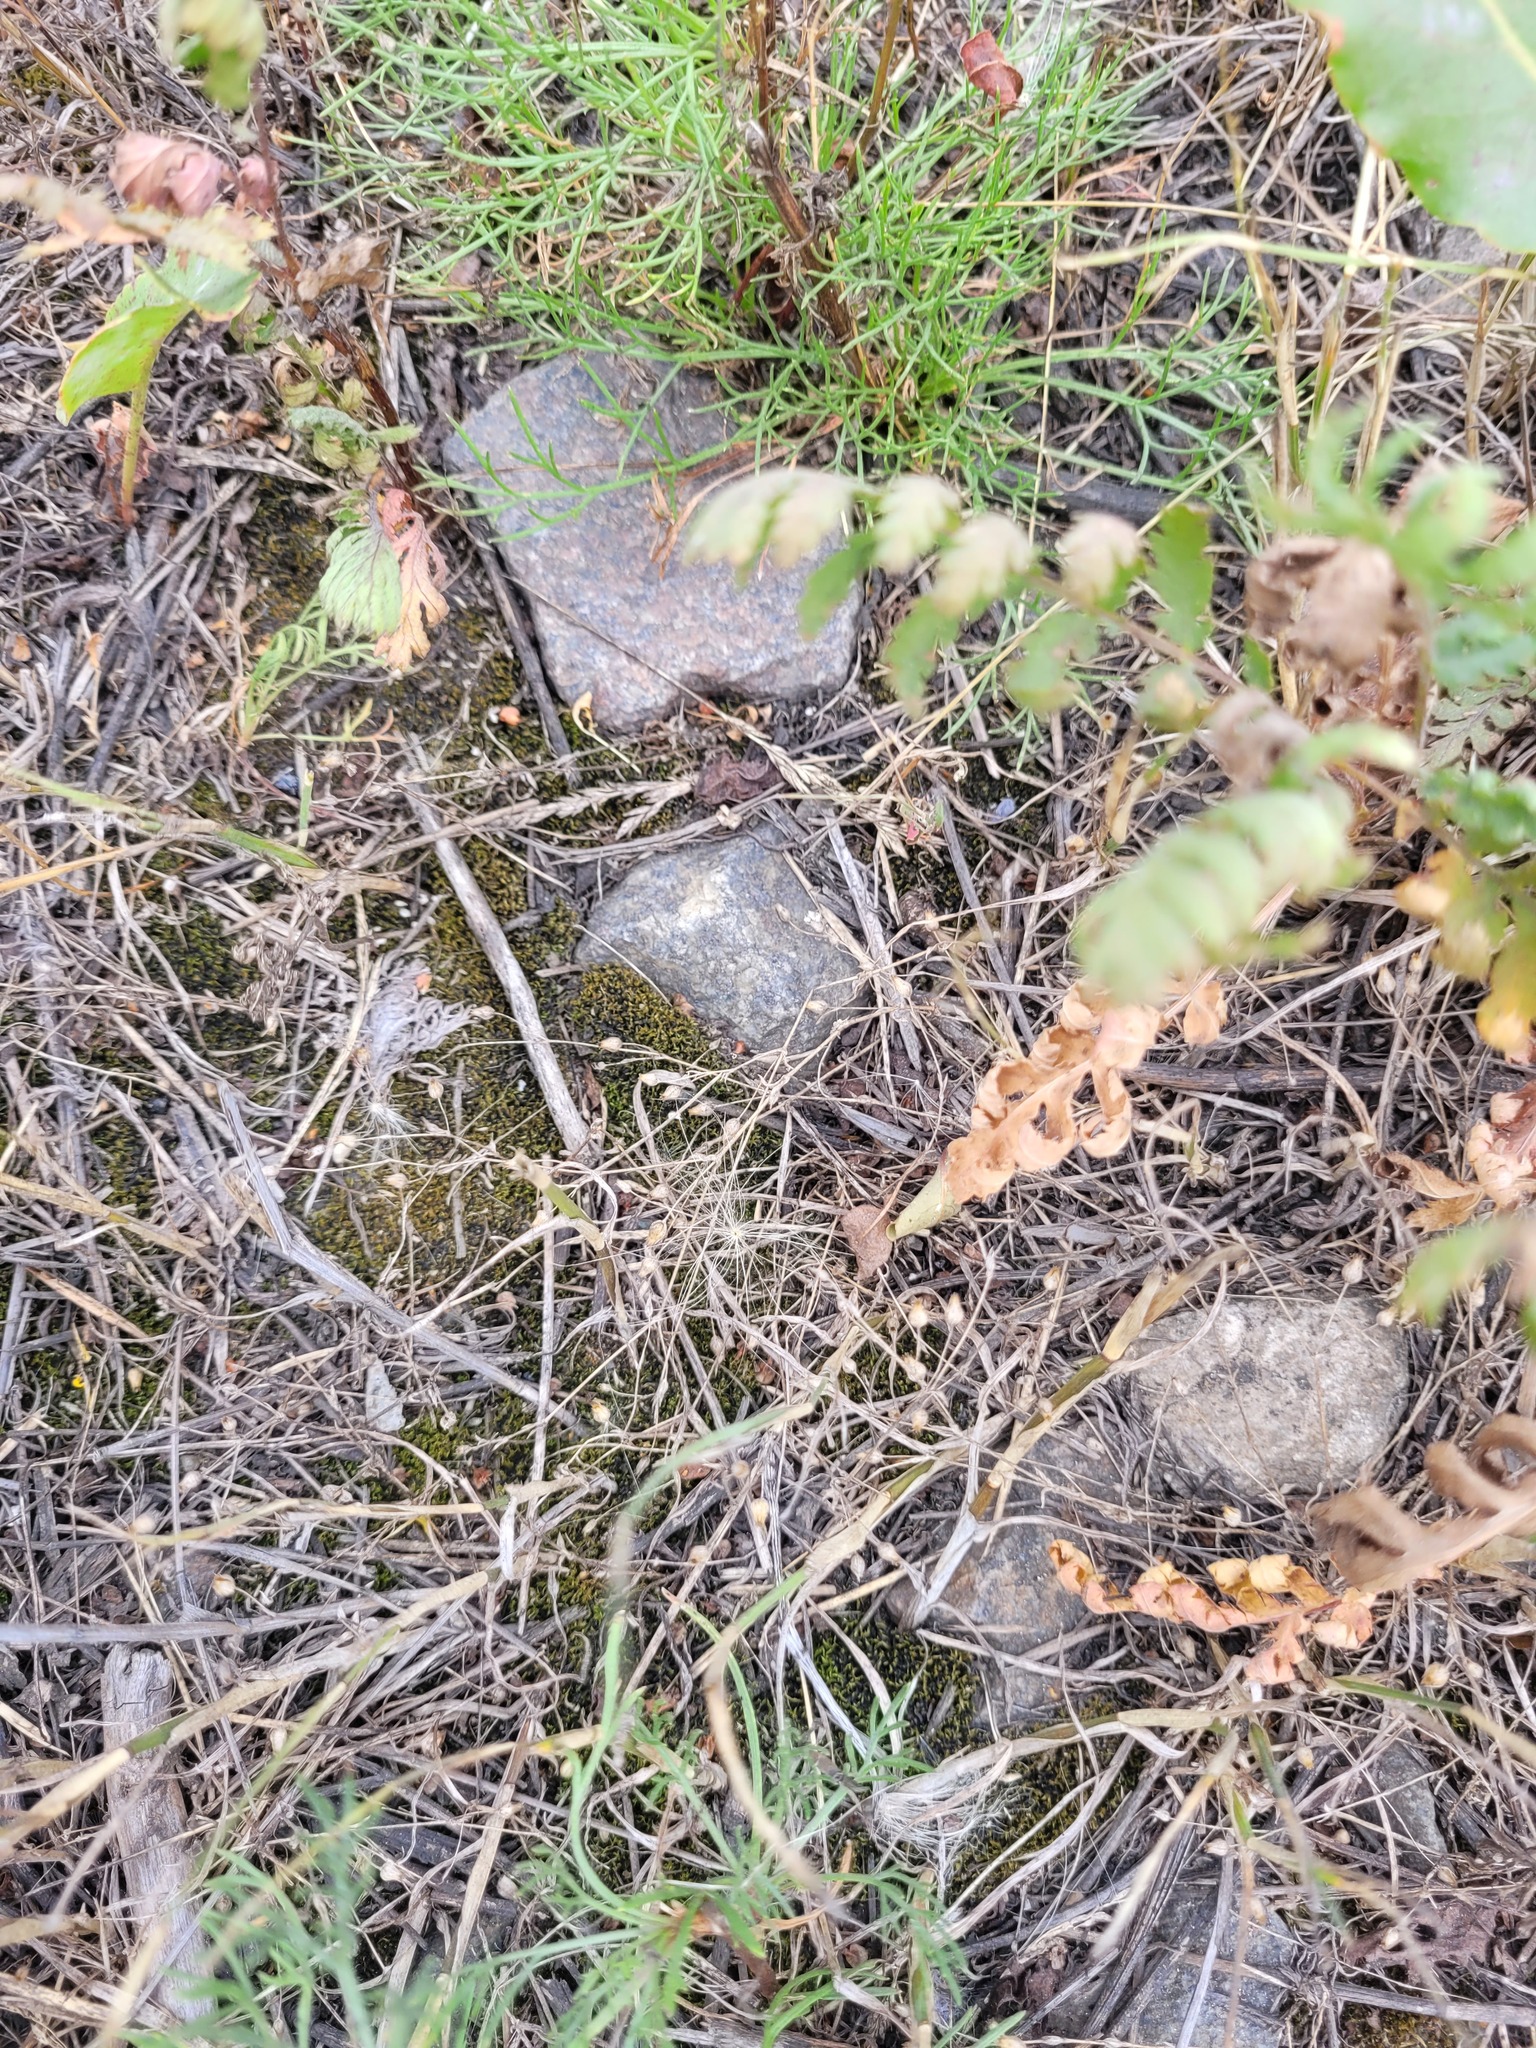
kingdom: Plantae
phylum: Tracheophyta
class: Magnoliopsida
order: Caryophyllales
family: Caryophyllaceae
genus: Arenaria
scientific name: Arenaria serpyllifolia
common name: Thyme-leaved sandwort
